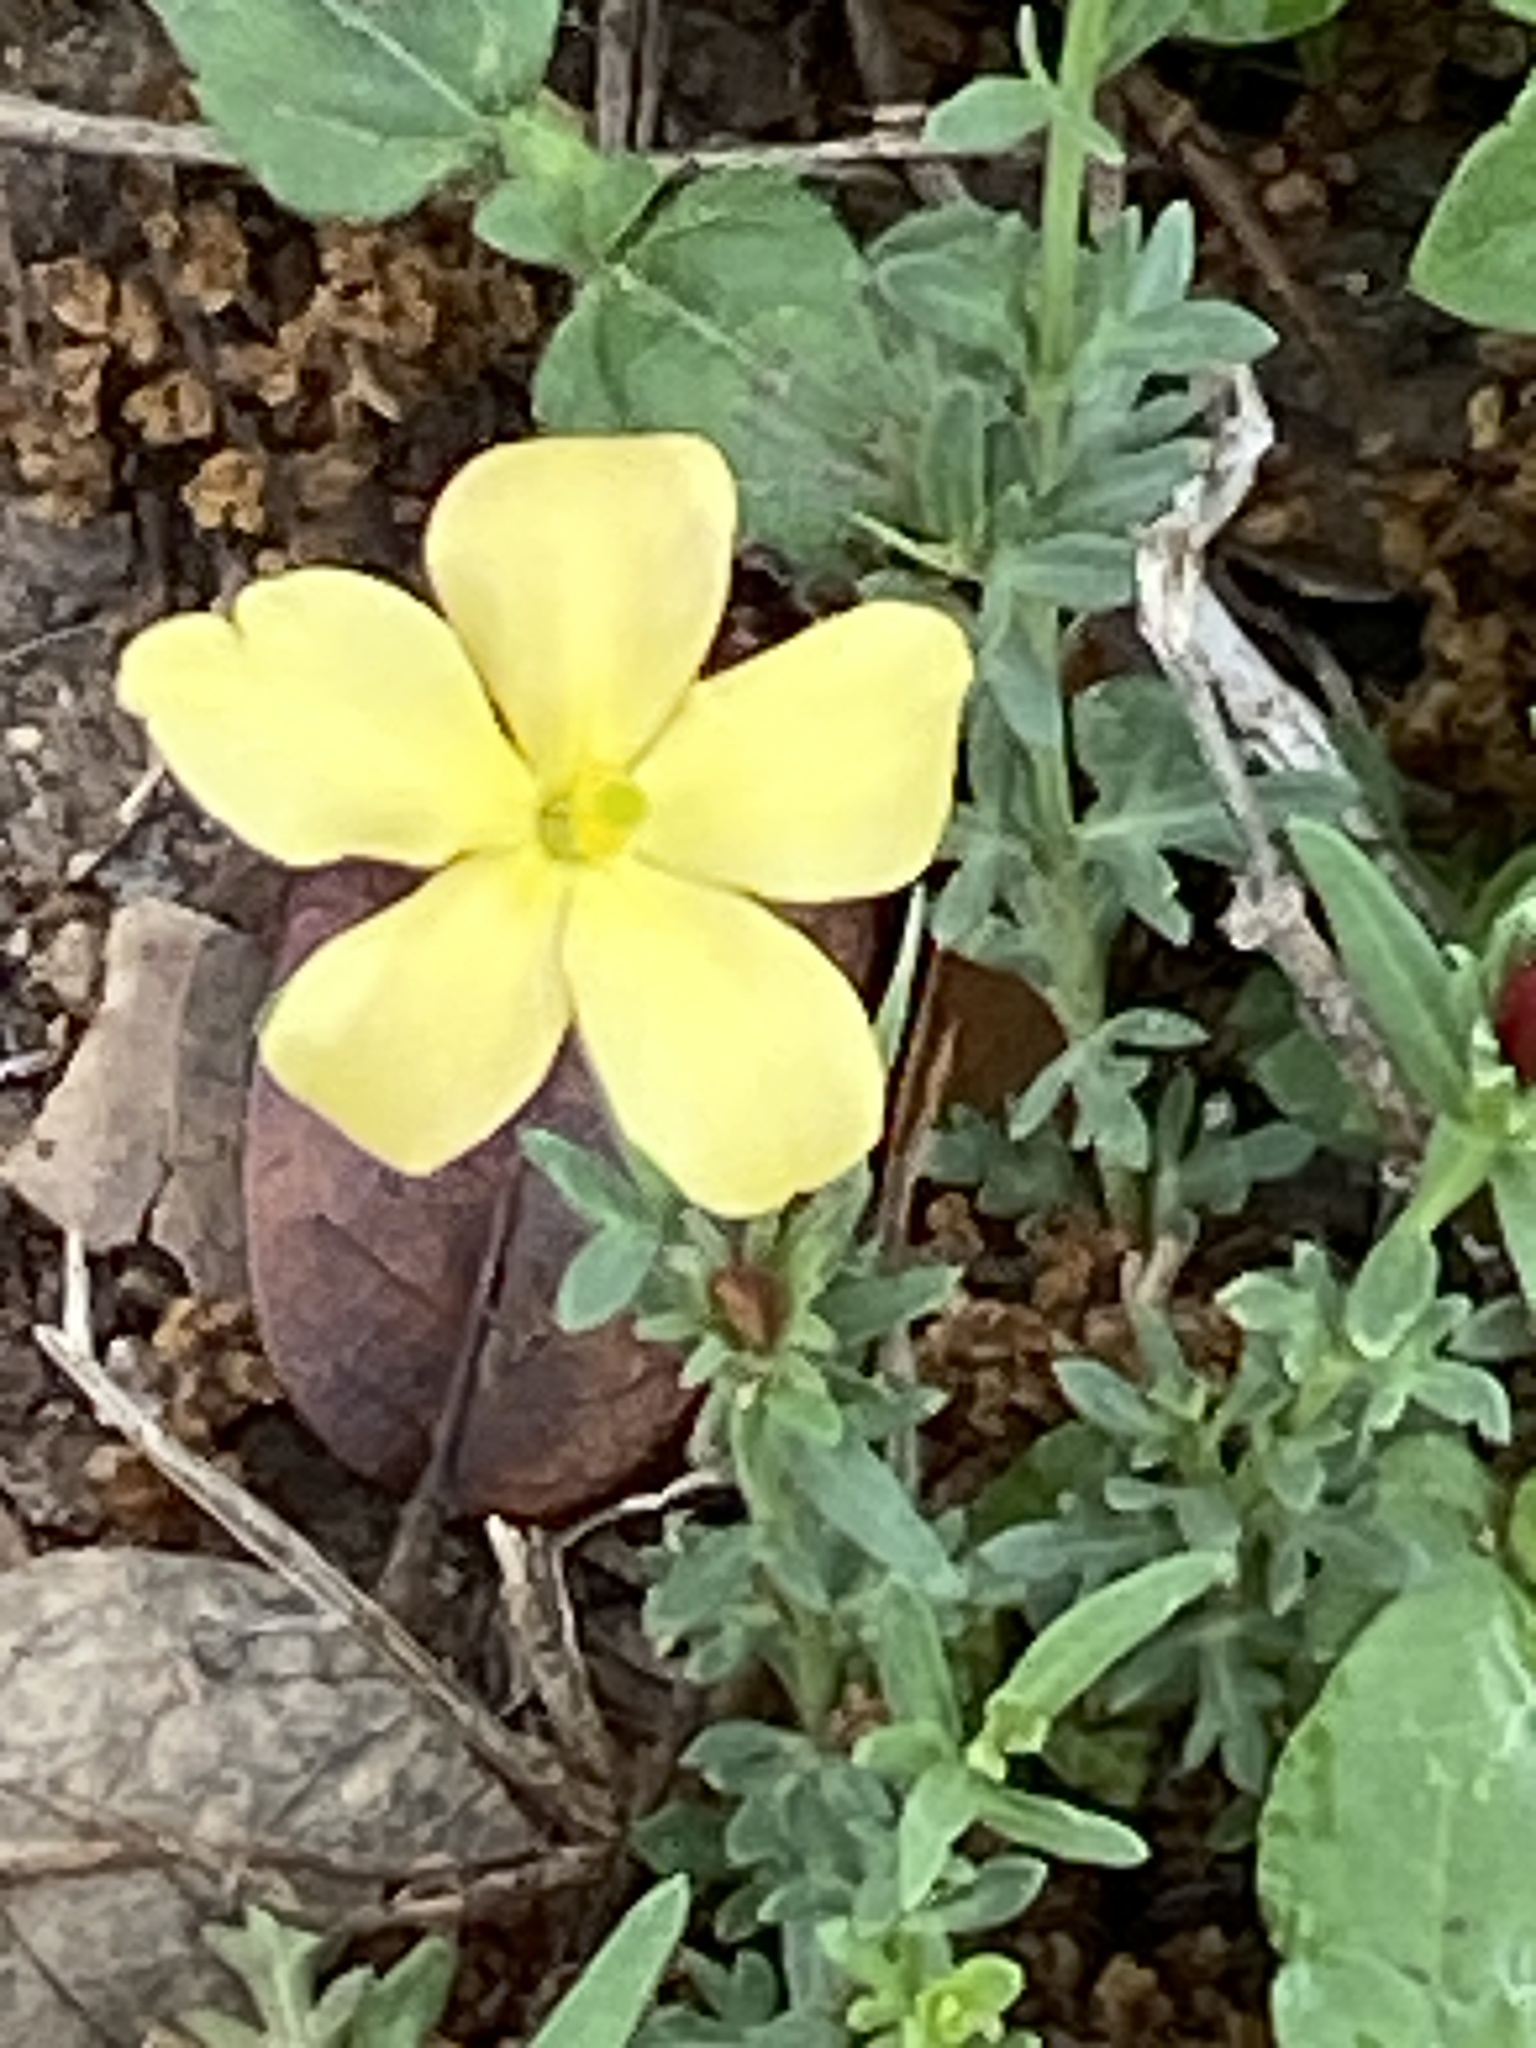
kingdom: Plantae
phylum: Tracheophyta
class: Magnoliopsida
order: Lamiales
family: Oleaceae
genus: Menodora
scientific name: Menodora heterophylla
